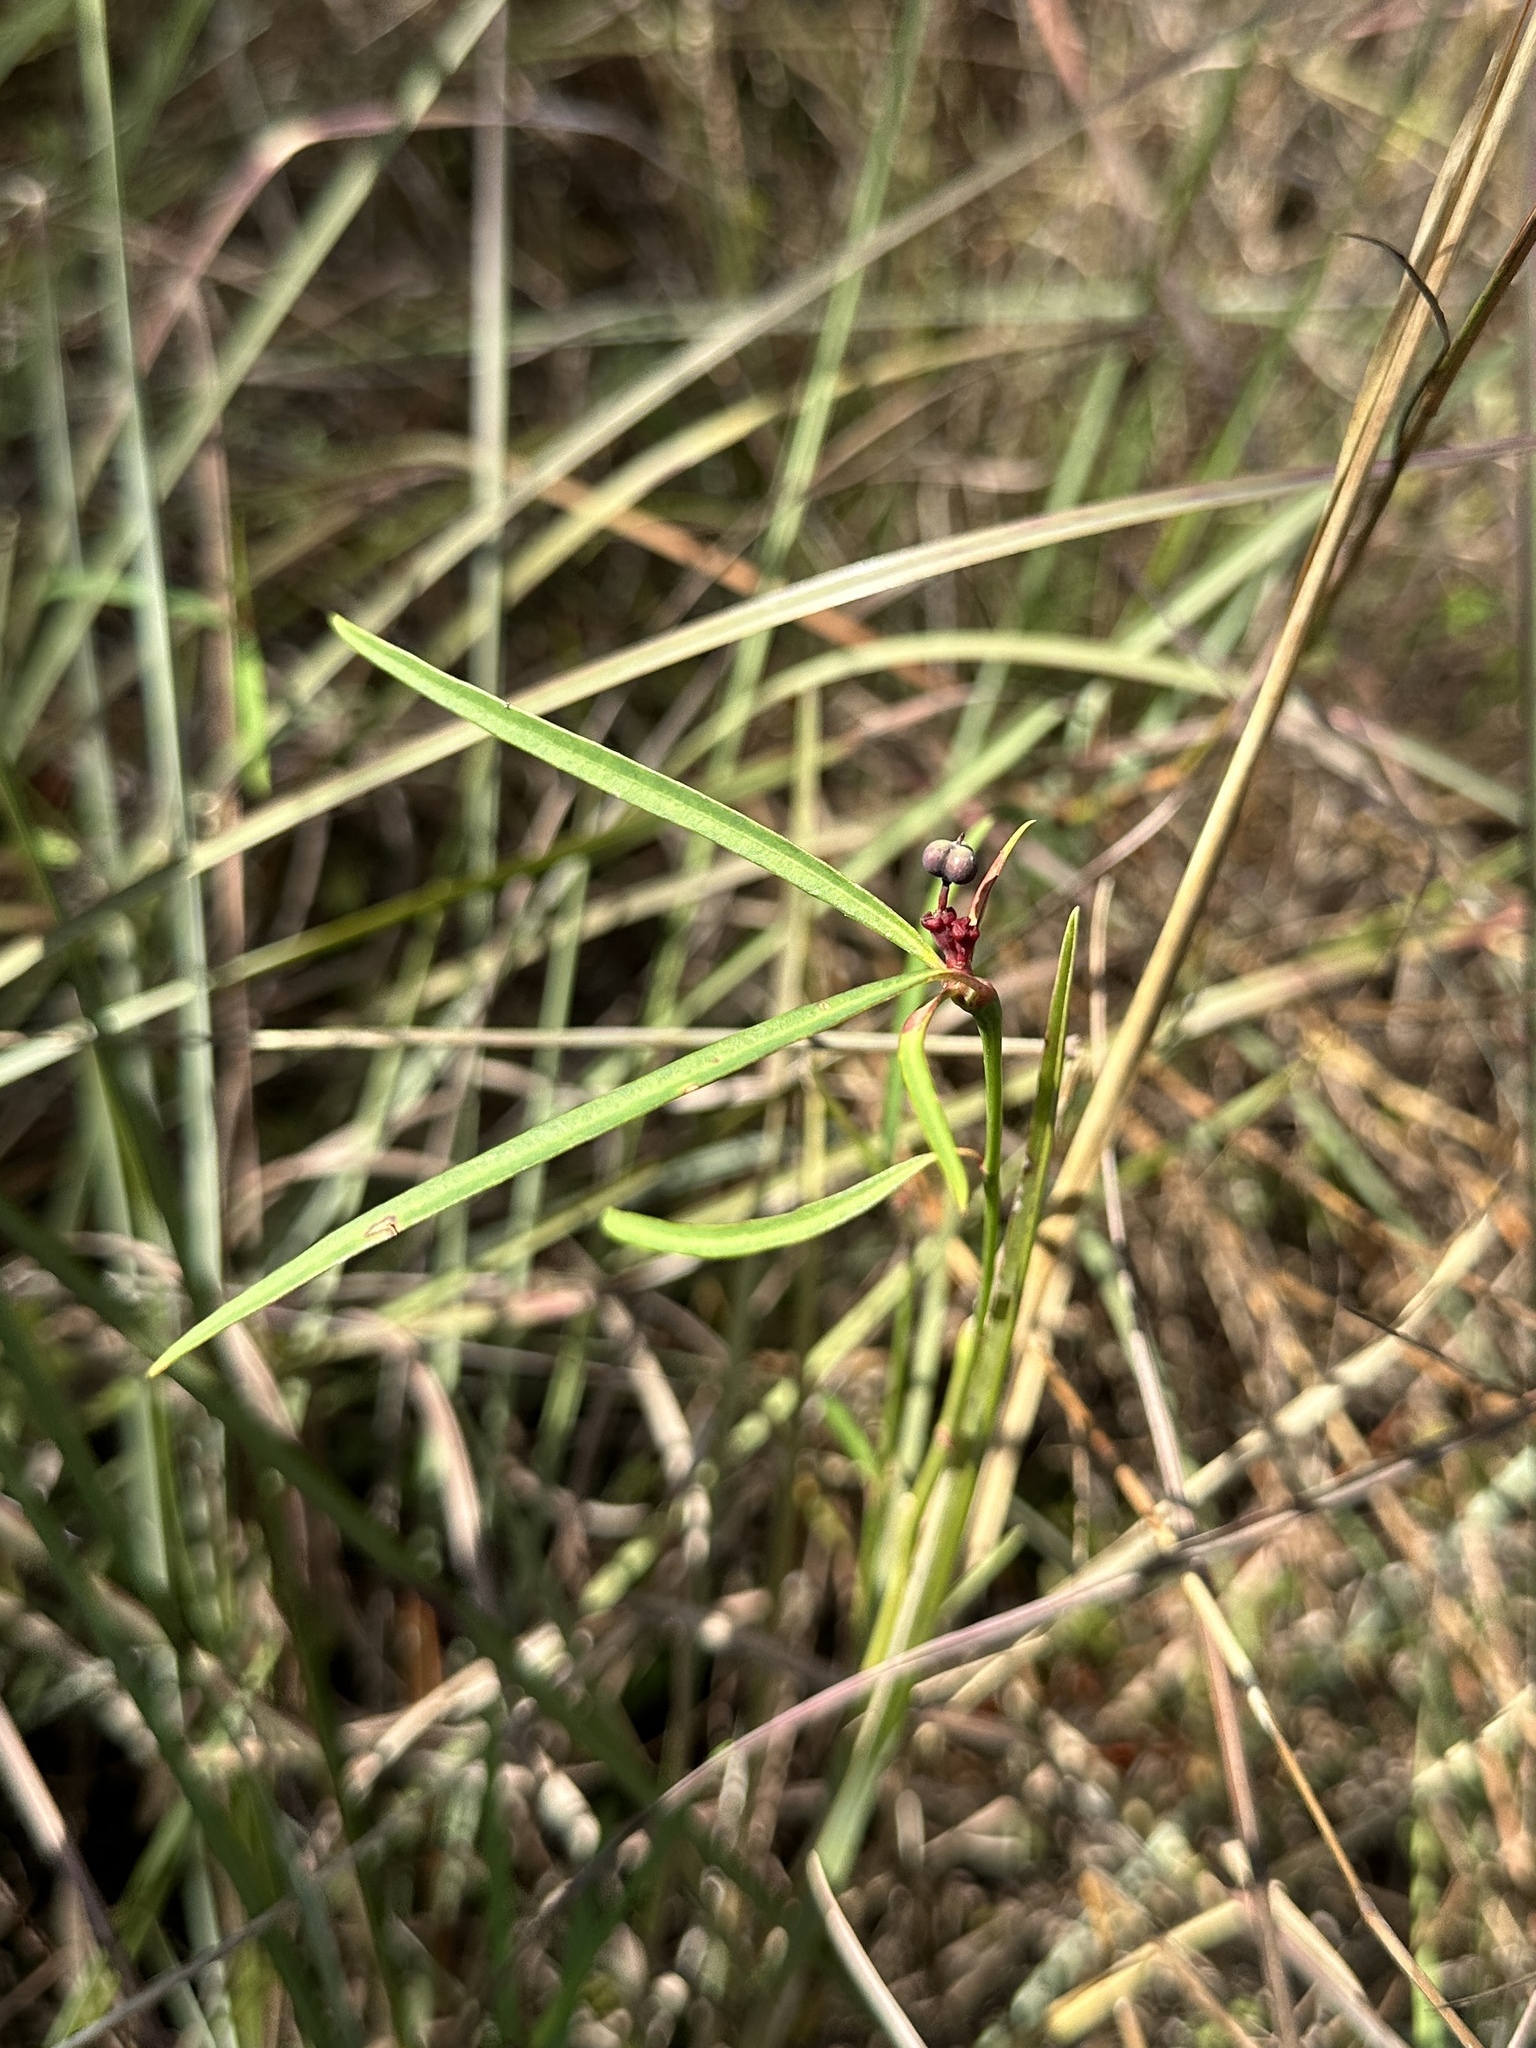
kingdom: Plantae
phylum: Tracheophyta
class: Magnoliopsida
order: Malpighiales
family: Euphorbiaceae
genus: Euphorbia
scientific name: Euphorbia pinetorum
